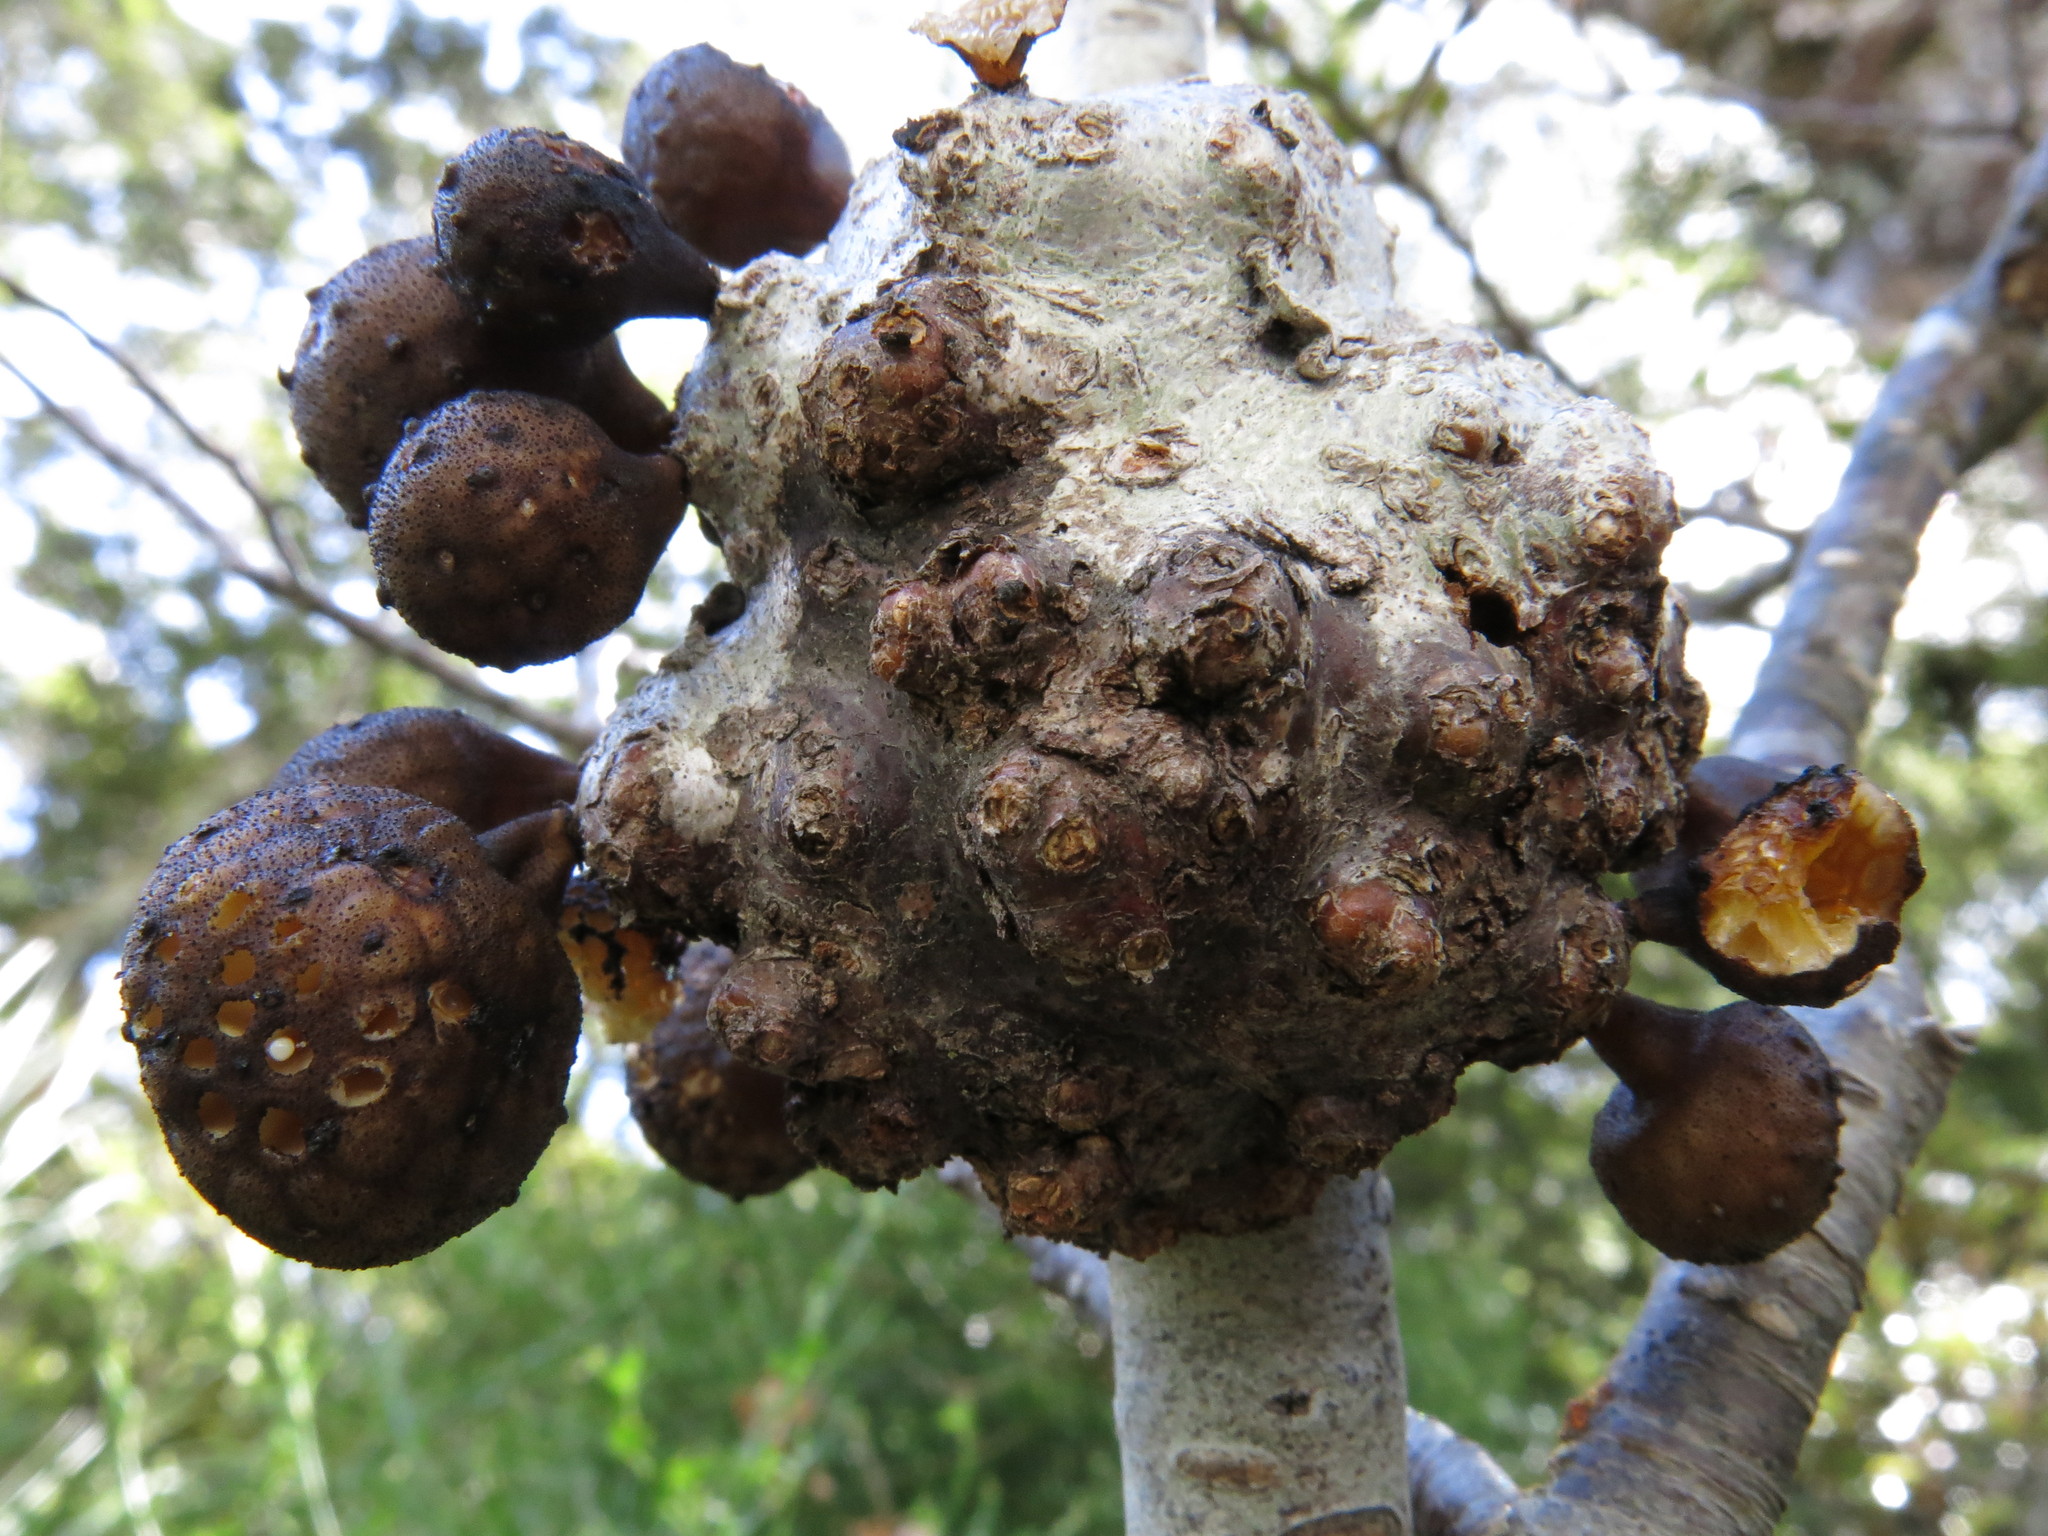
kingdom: Fungi
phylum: Ascomycota
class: Leotiomycetes
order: Cyttariales
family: Cyttariaceae
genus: Cyttaria
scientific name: Cyttaria nigra
